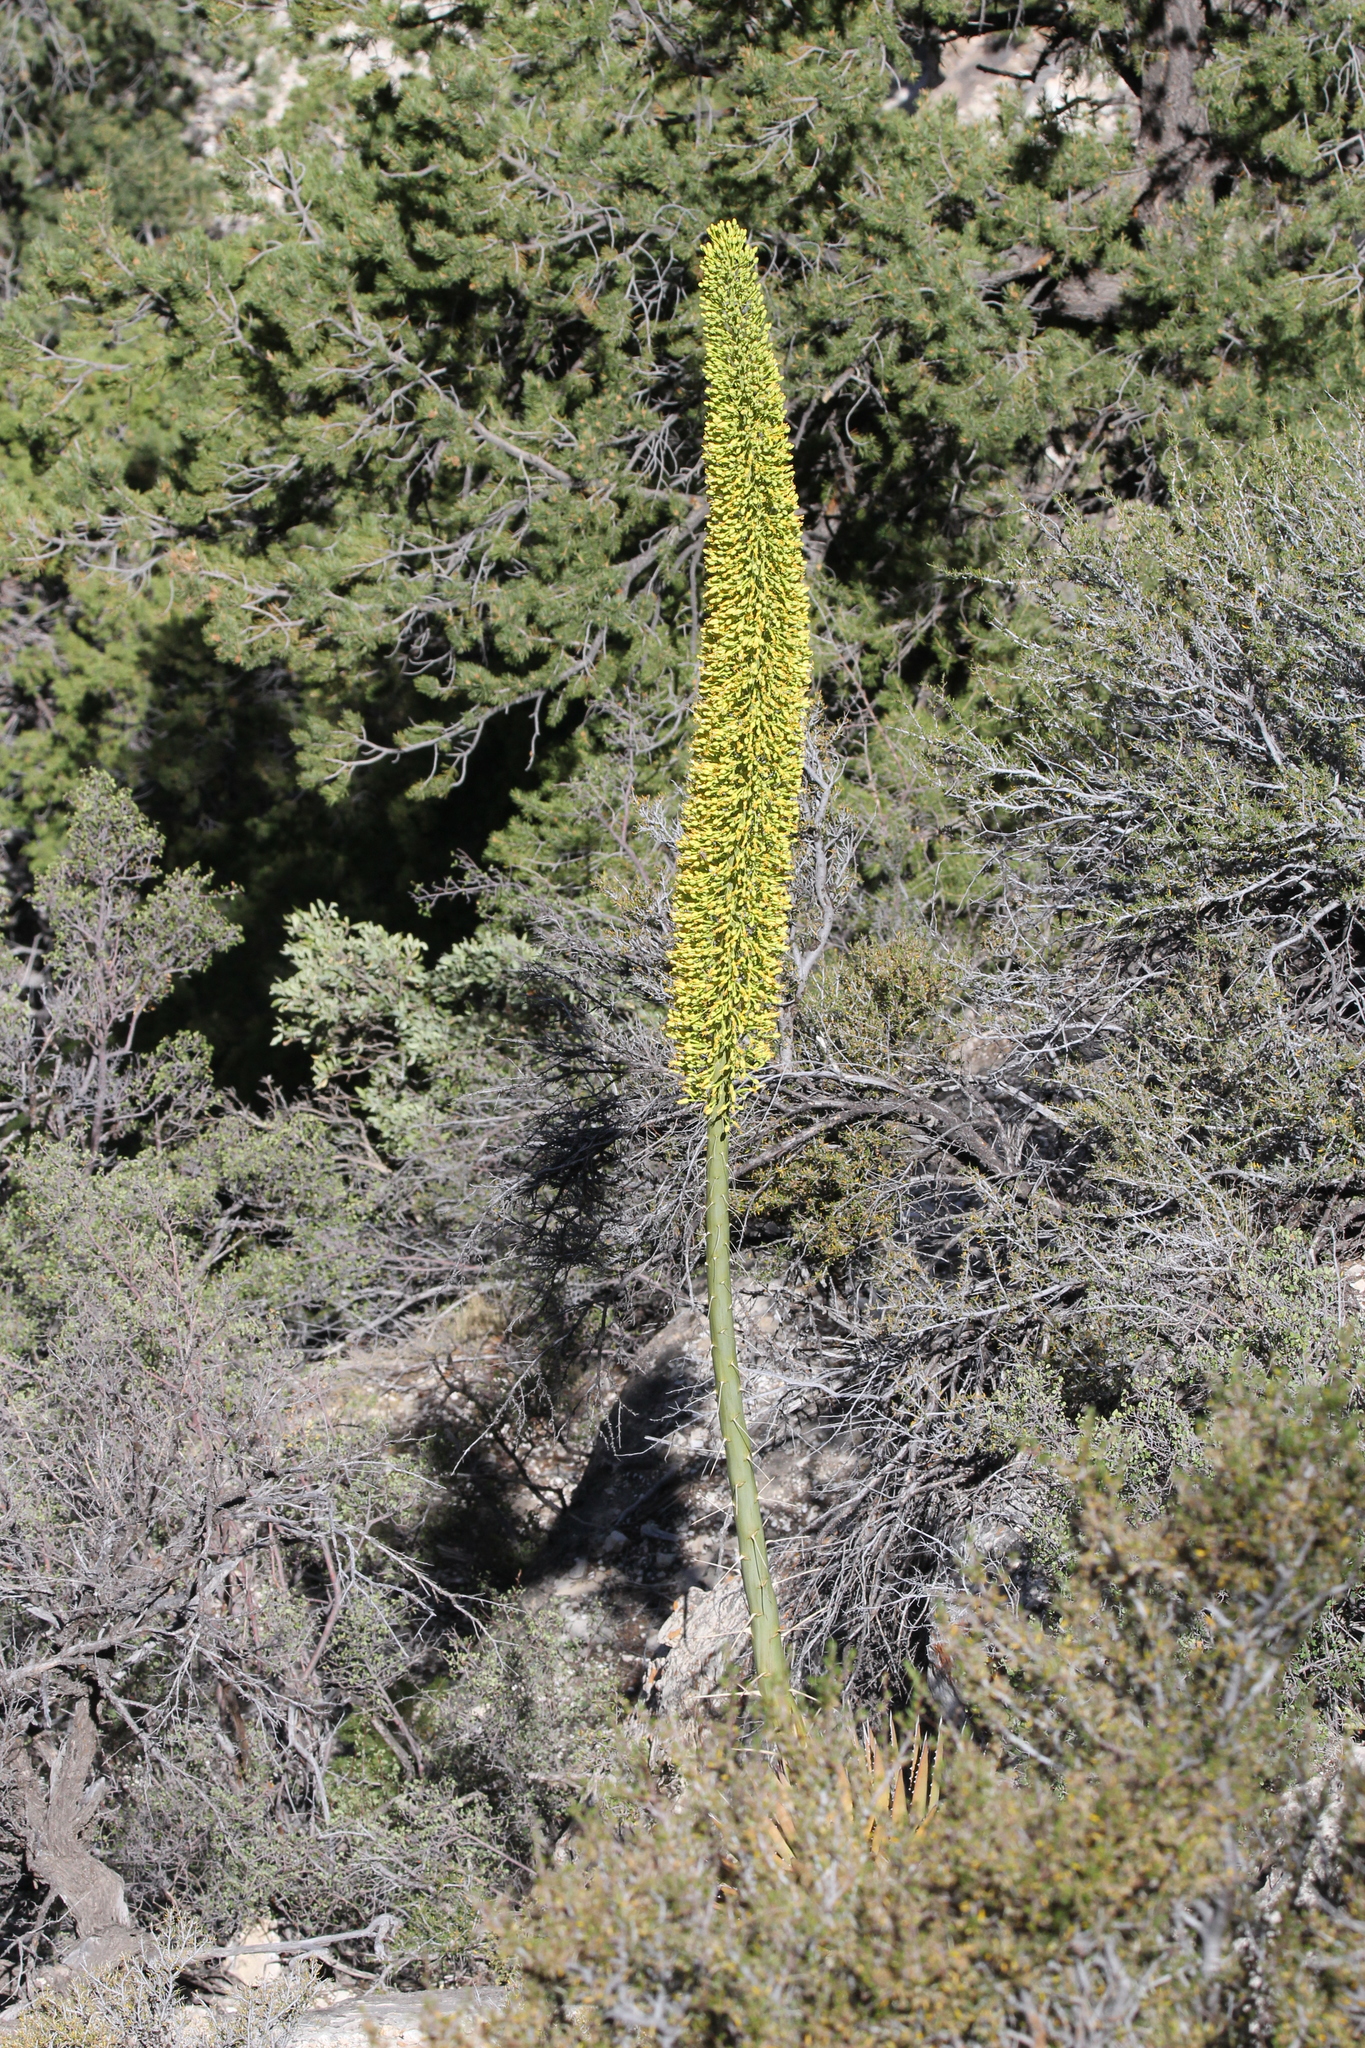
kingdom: Plantae
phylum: Tracheophyta
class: Liliopsida
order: Asparagales
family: Asparagaceae
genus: Agave
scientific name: Agave utahensis
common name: Utah agave
